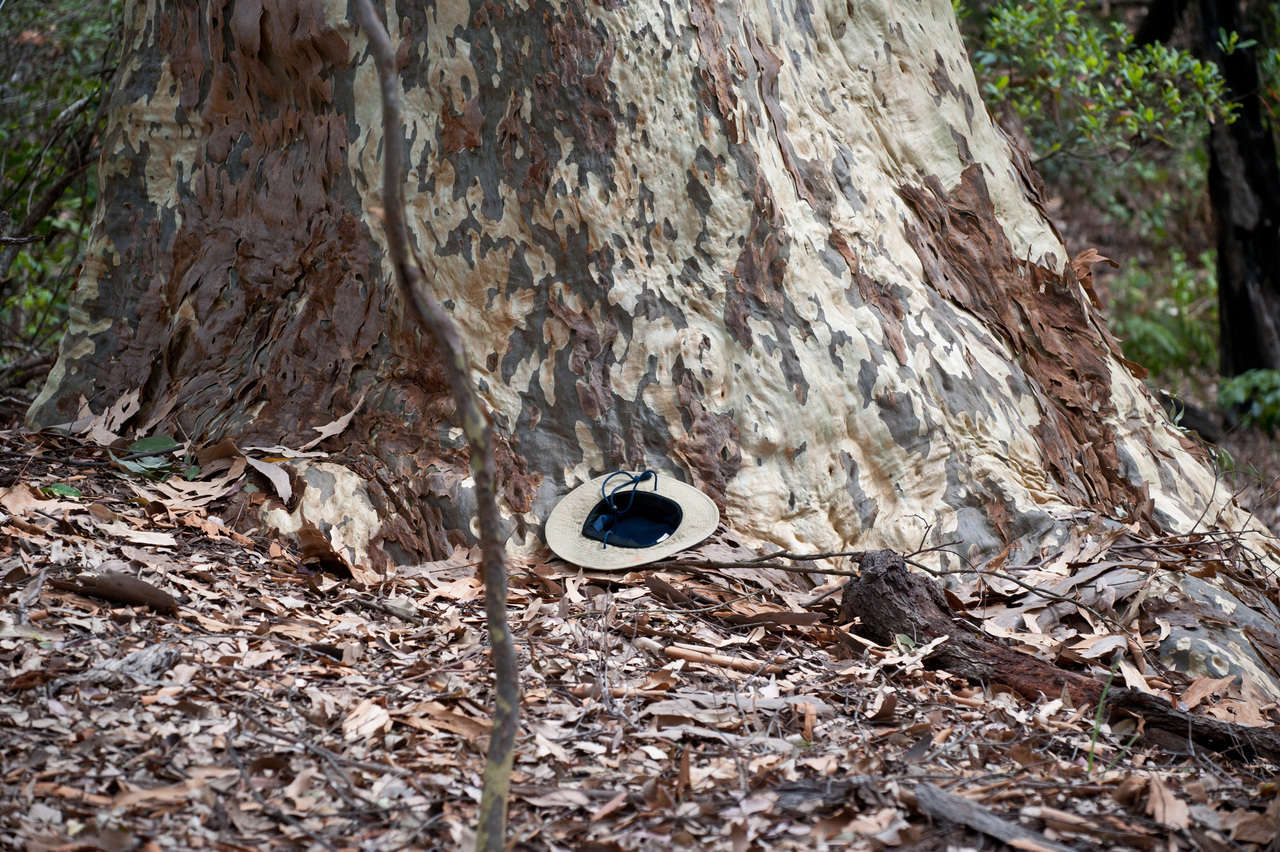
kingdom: Plantae
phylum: Tracheophyta
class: Magnoliopsida
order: Myrtales
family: Myrtaceae
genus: Corymbia
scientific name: Corymbia maculata
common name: Spotted gum
